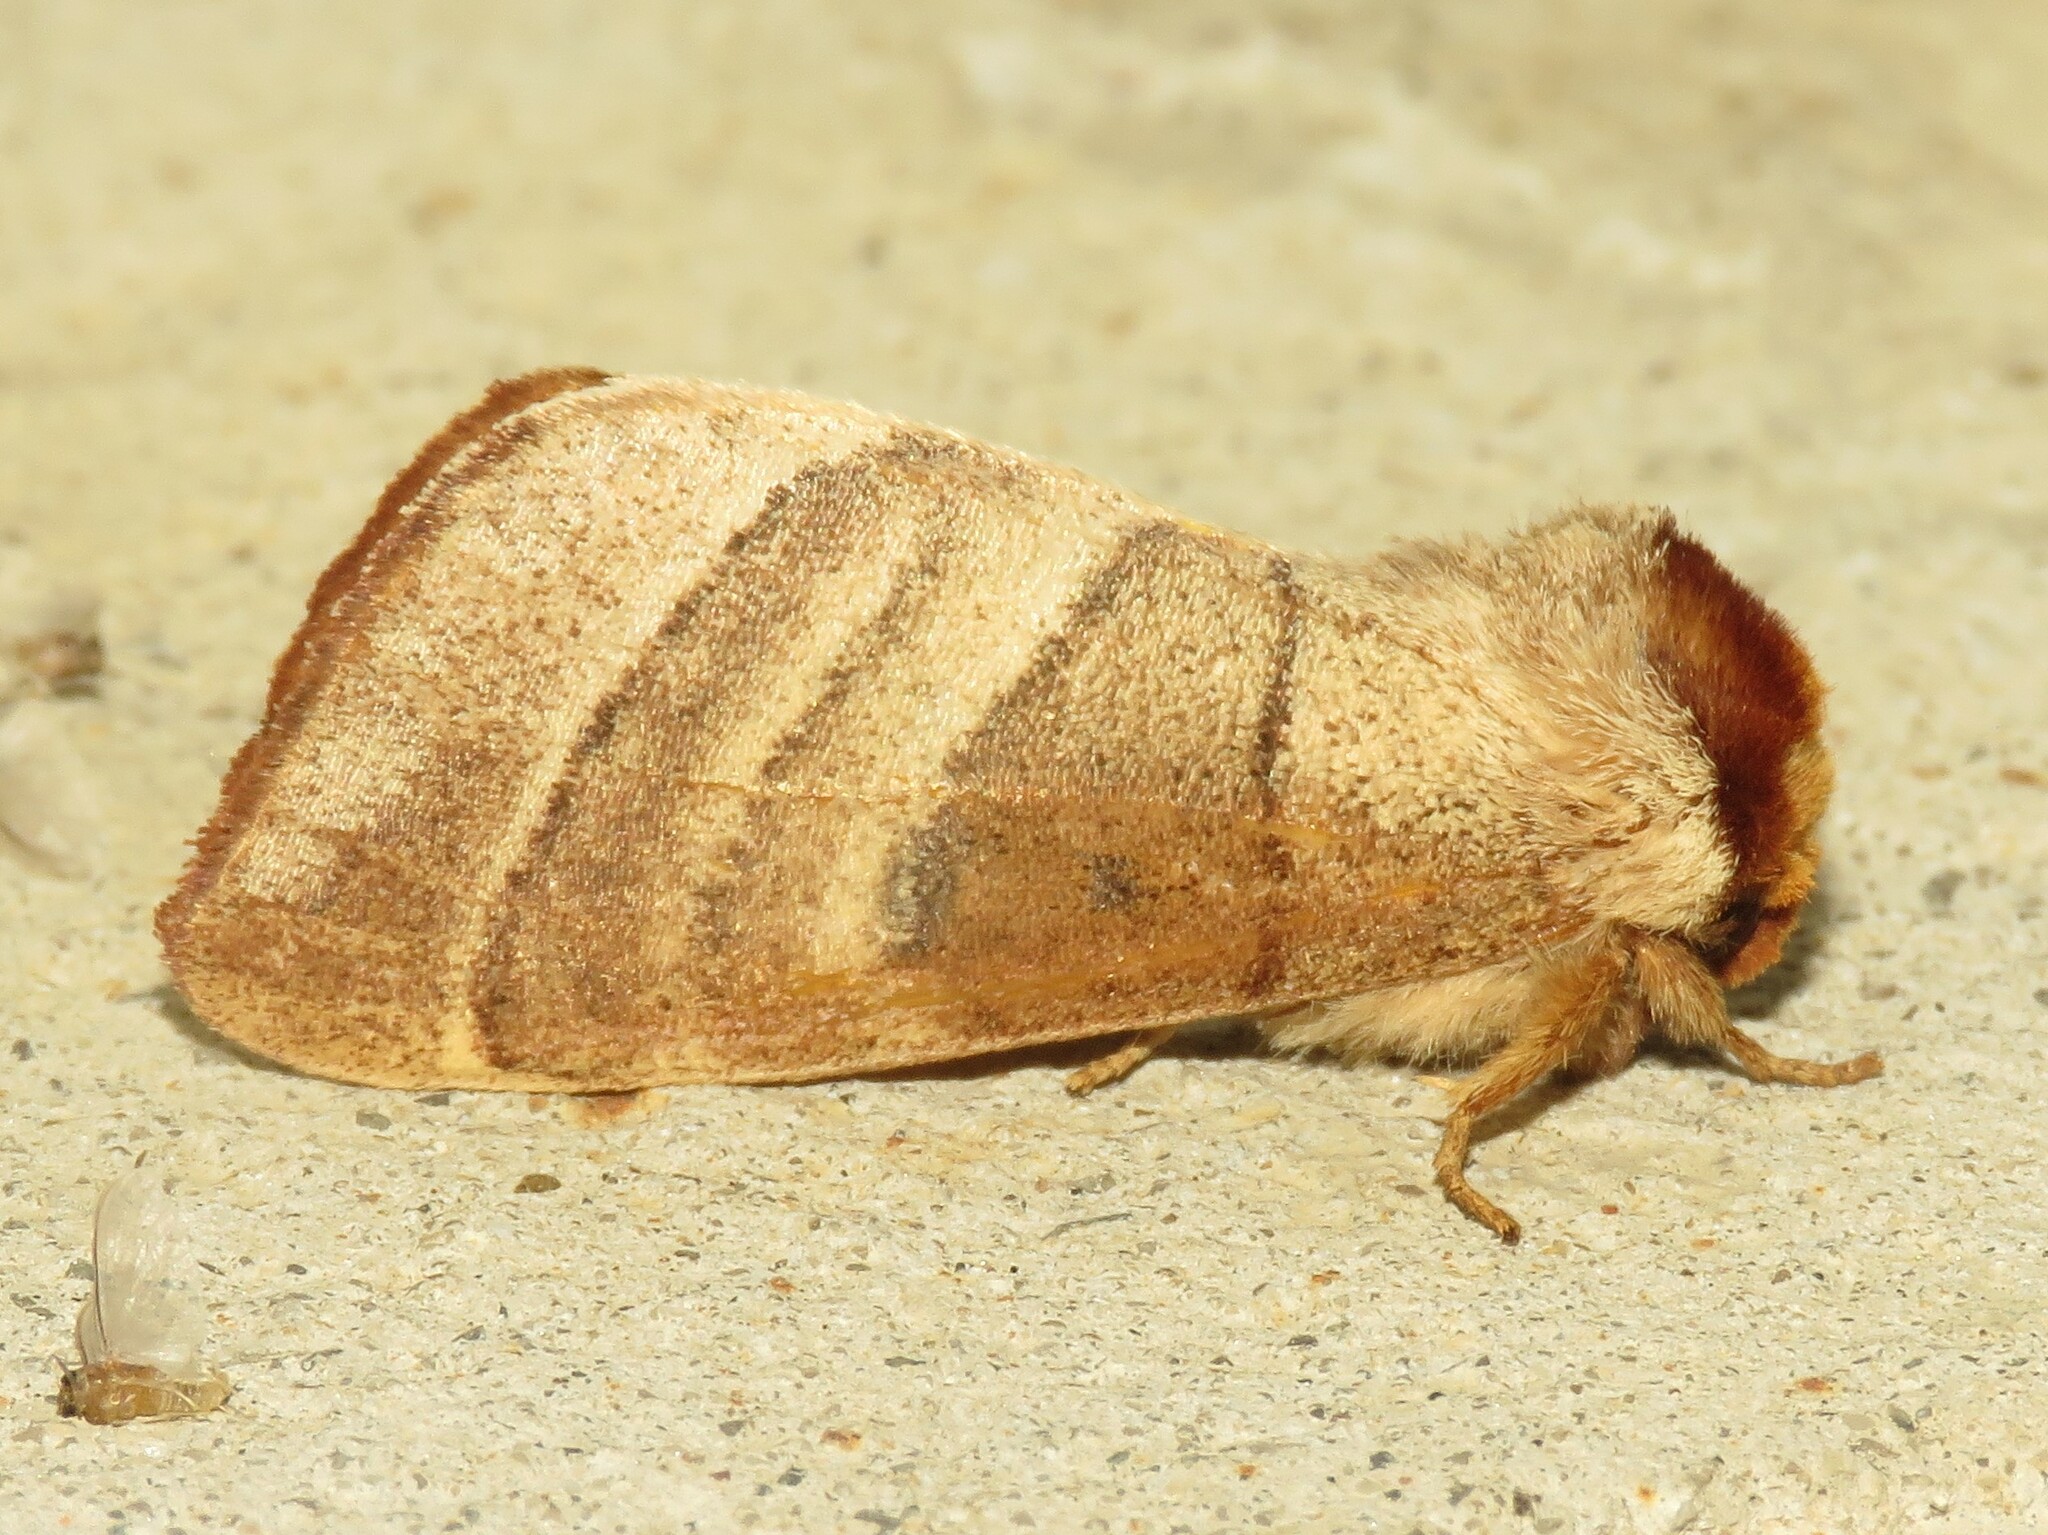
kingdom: Animalia
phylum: Arthropoda
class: Insecta
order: Lepidoptera
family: Notodontidae
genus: Datana
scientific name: Datana contracta
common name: Contracted datana
